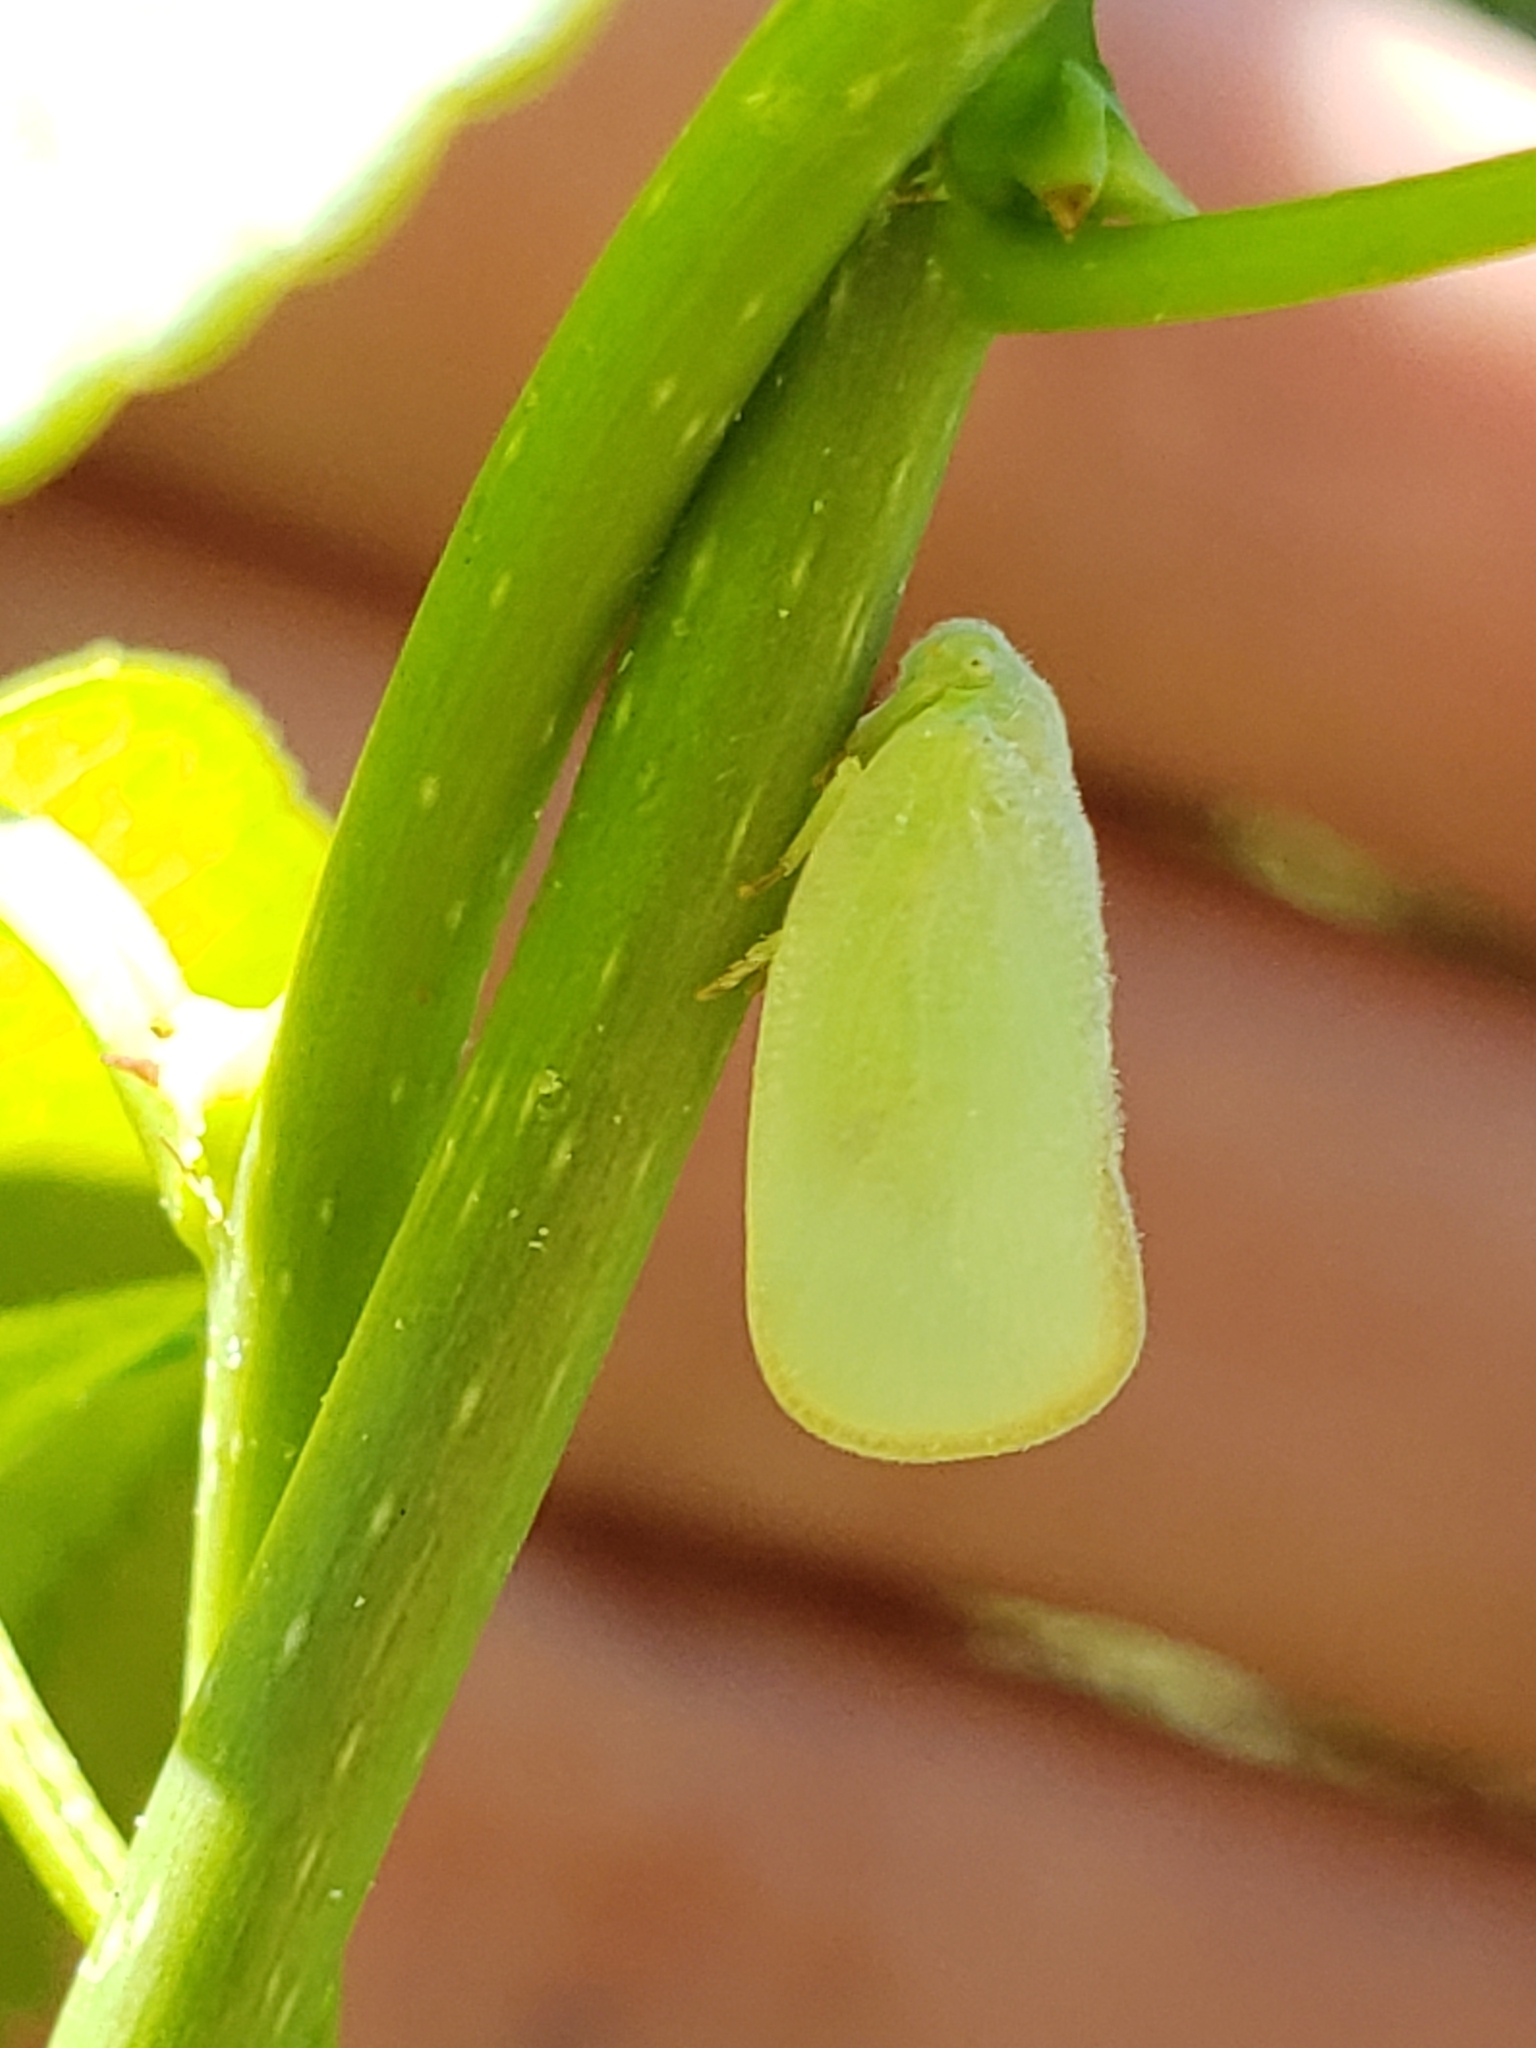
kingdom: Animalia
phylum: Arthropoda
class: Insecta
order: Hemiptera
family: Flatidae
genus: Ormenoides
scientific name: Ormenoides venusta
